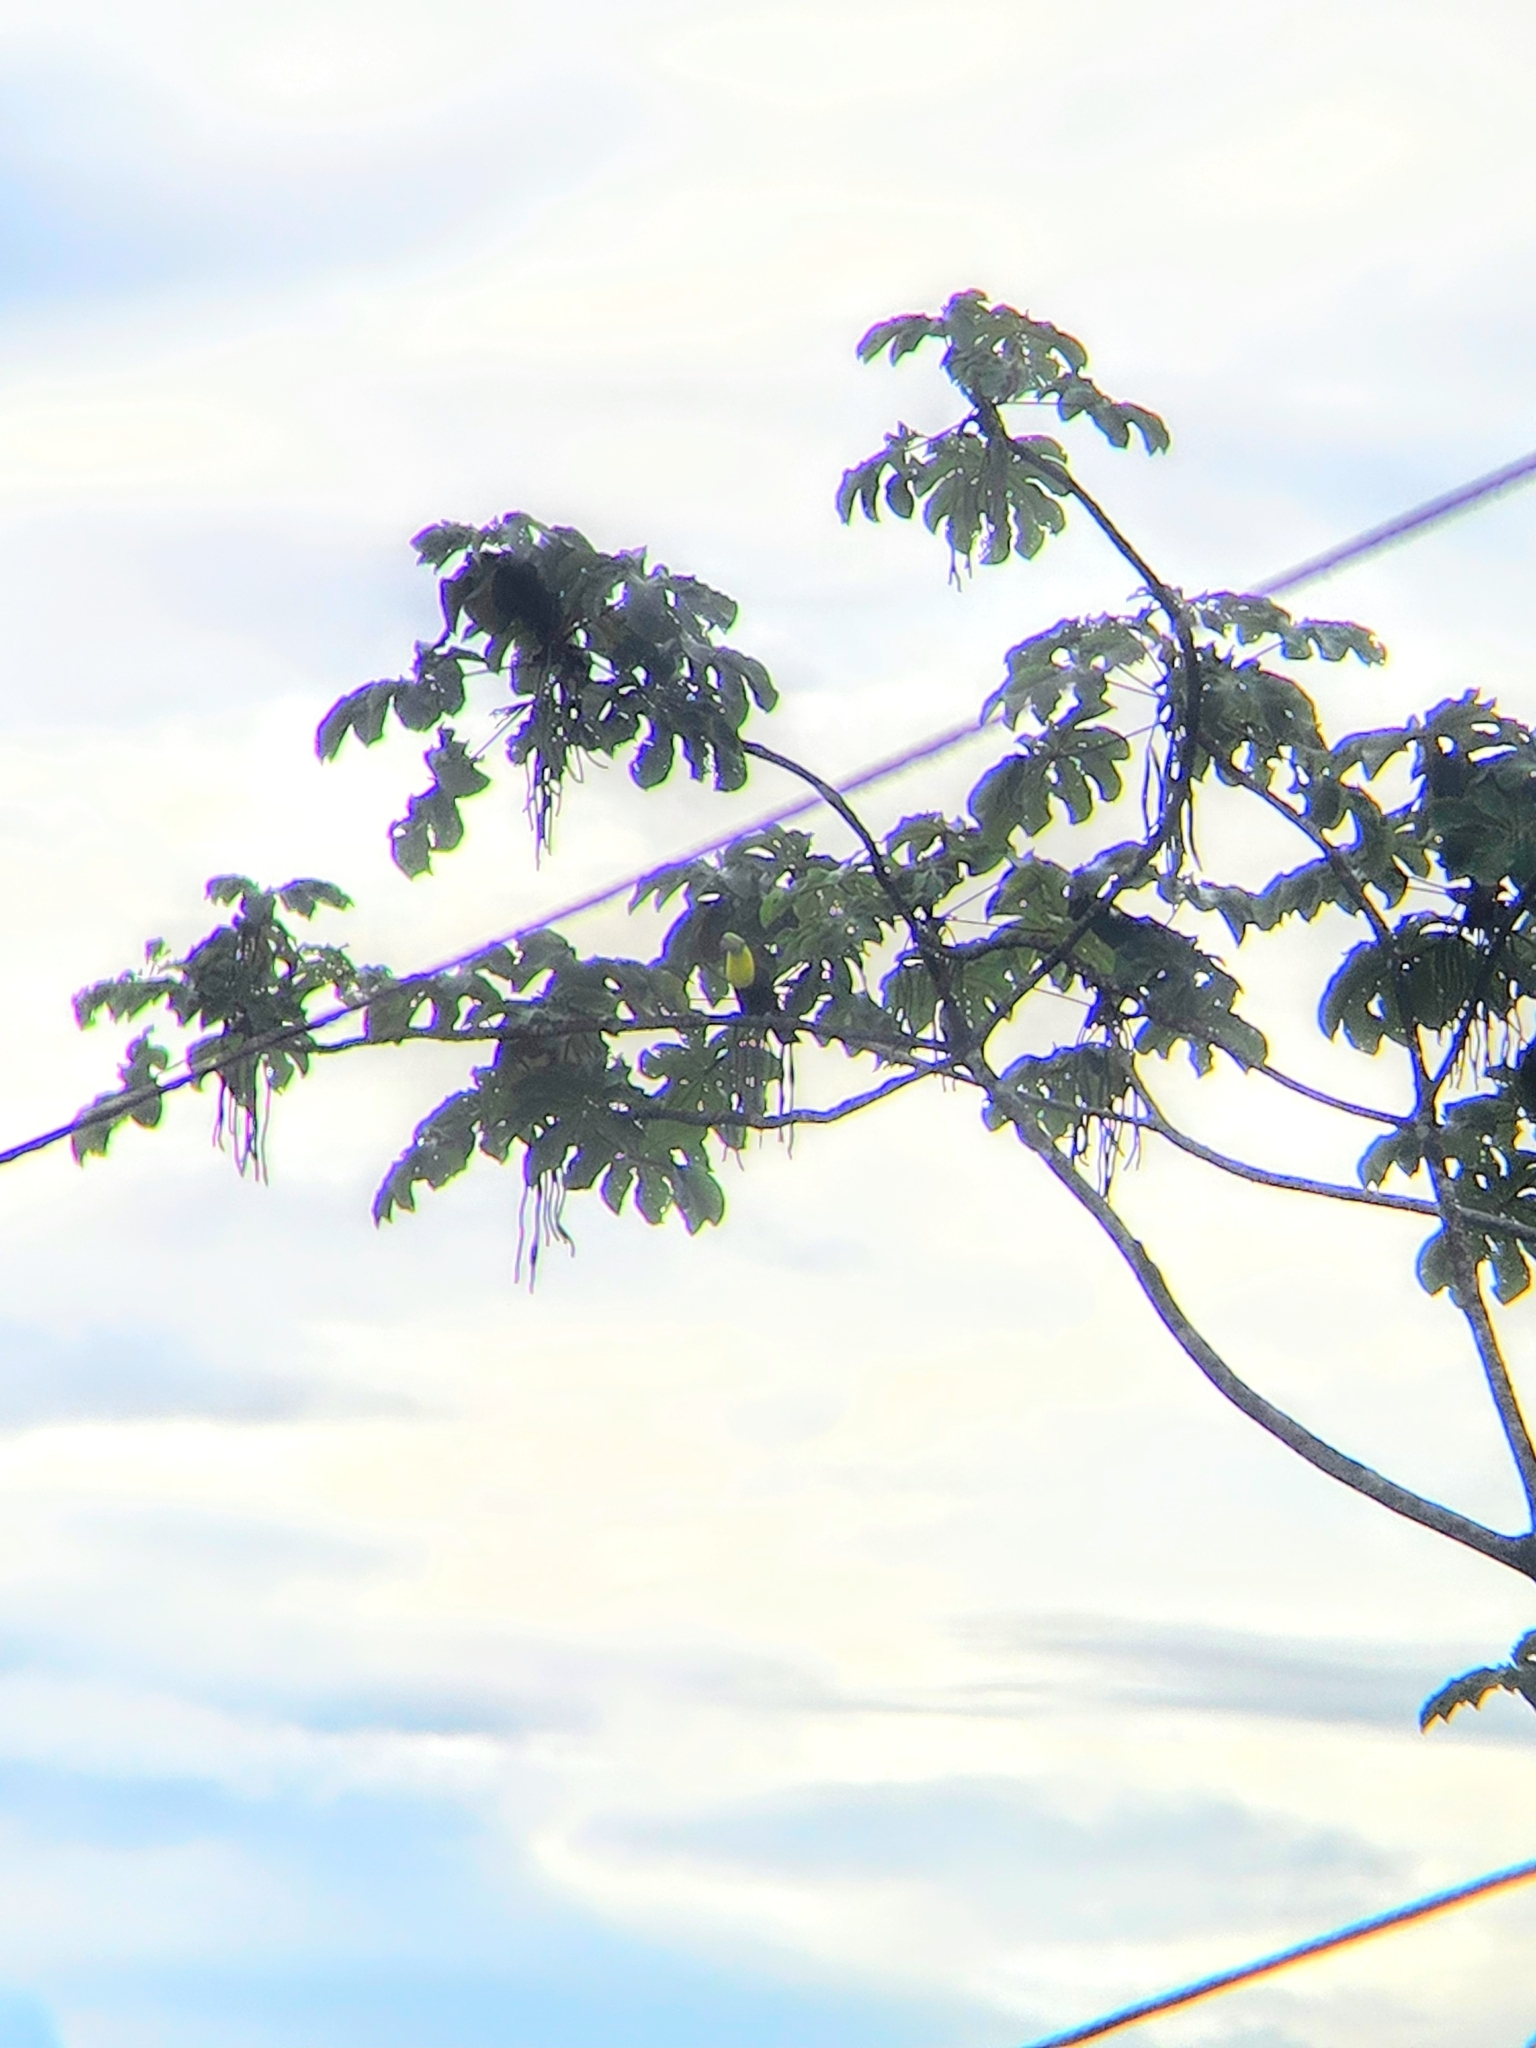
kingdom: Animalia
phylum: Chordata
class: Aves
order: Piciformes
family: Ramphastidae
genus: Ramphastos
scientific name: Ramphastos sulfuratus
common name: Keel-billed toucan
